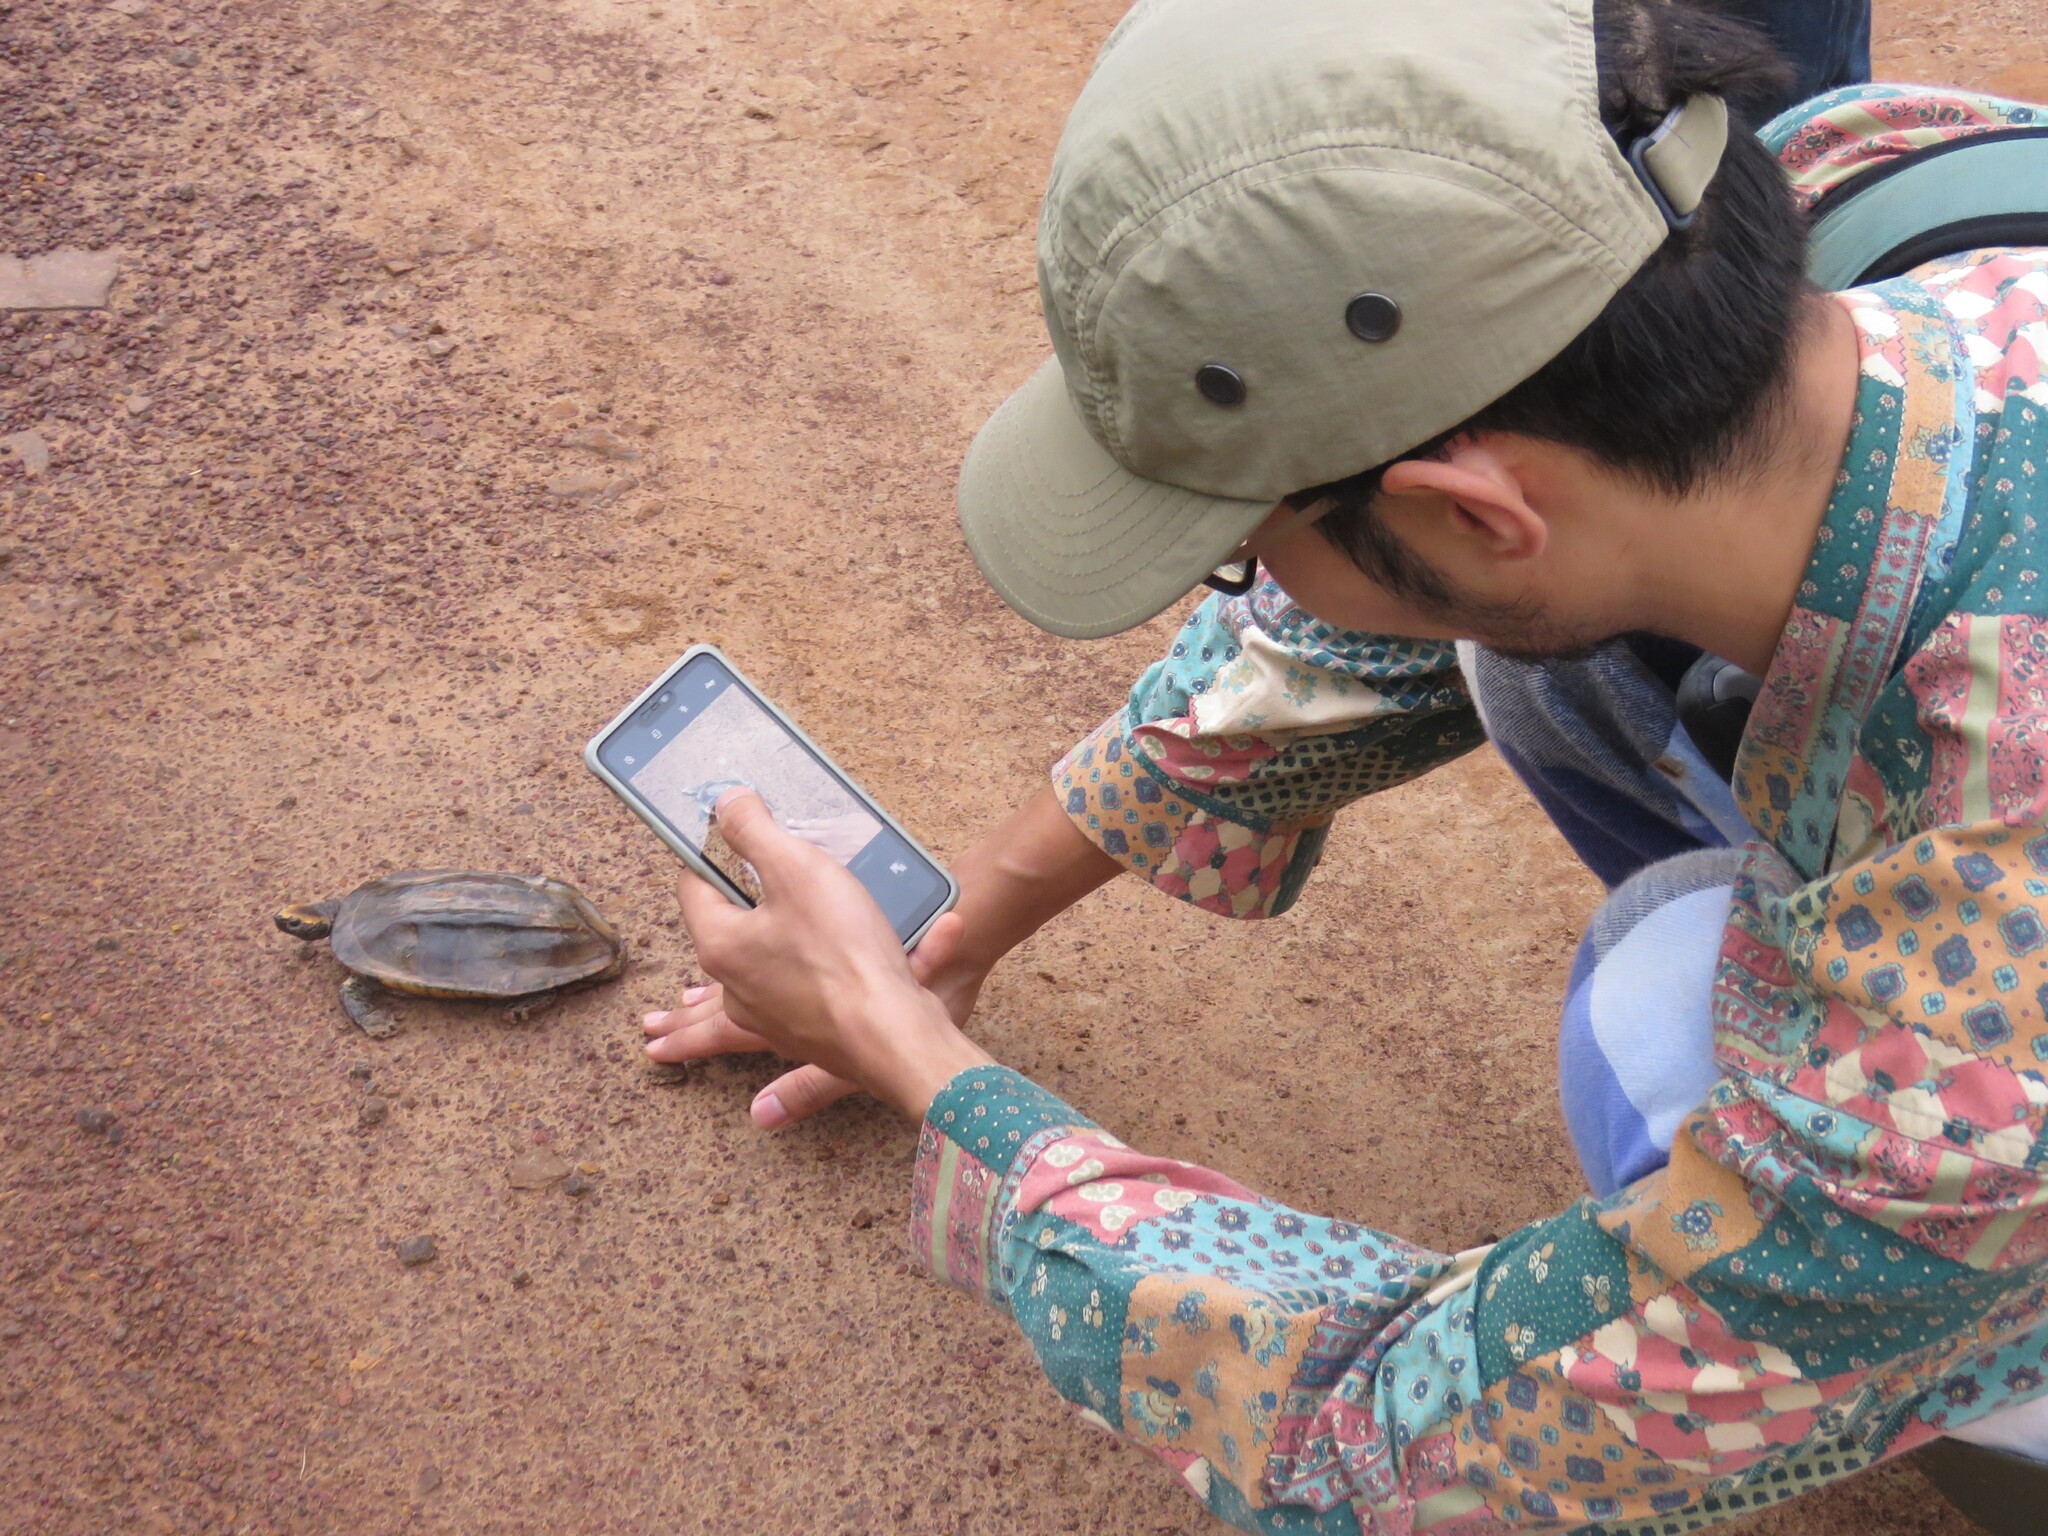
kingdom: Animalia
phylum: Chordata
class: Testudines
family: Chelidae
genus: Platemys
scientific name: Platemys platycephala
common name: Twistneck turtle
